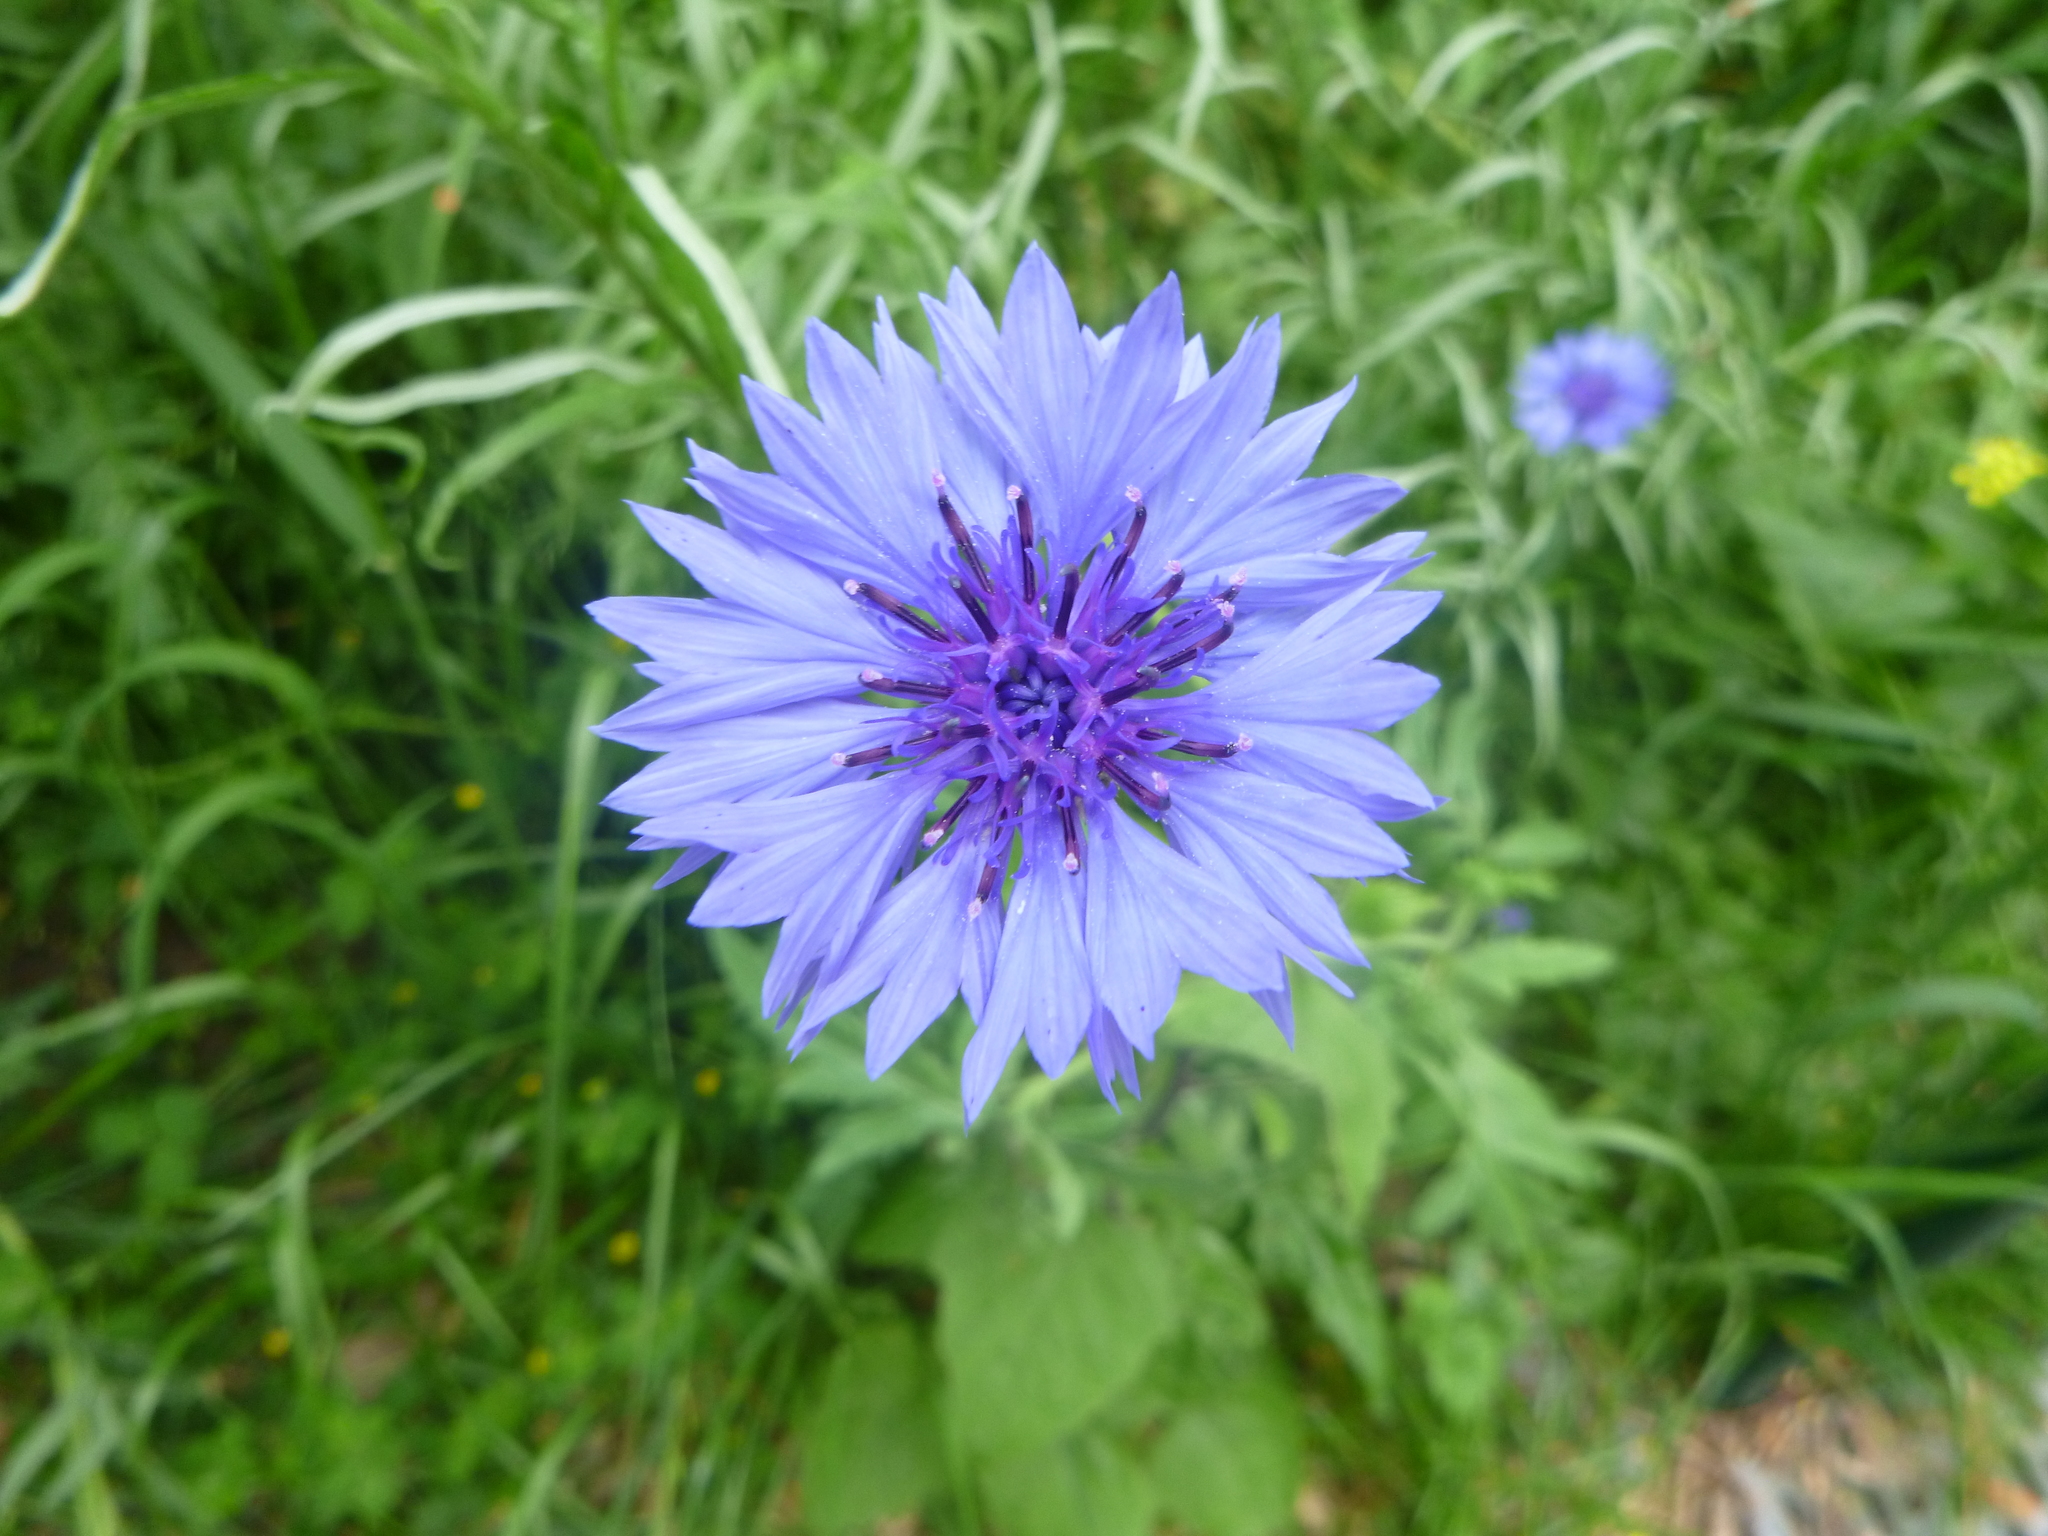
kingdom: Plantae
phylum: Tracheophyta
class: Magnoliopsida
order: Asterales
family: Asteraceae
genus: Centaurea
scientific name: Centaurea cyanus
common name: Cornflower
